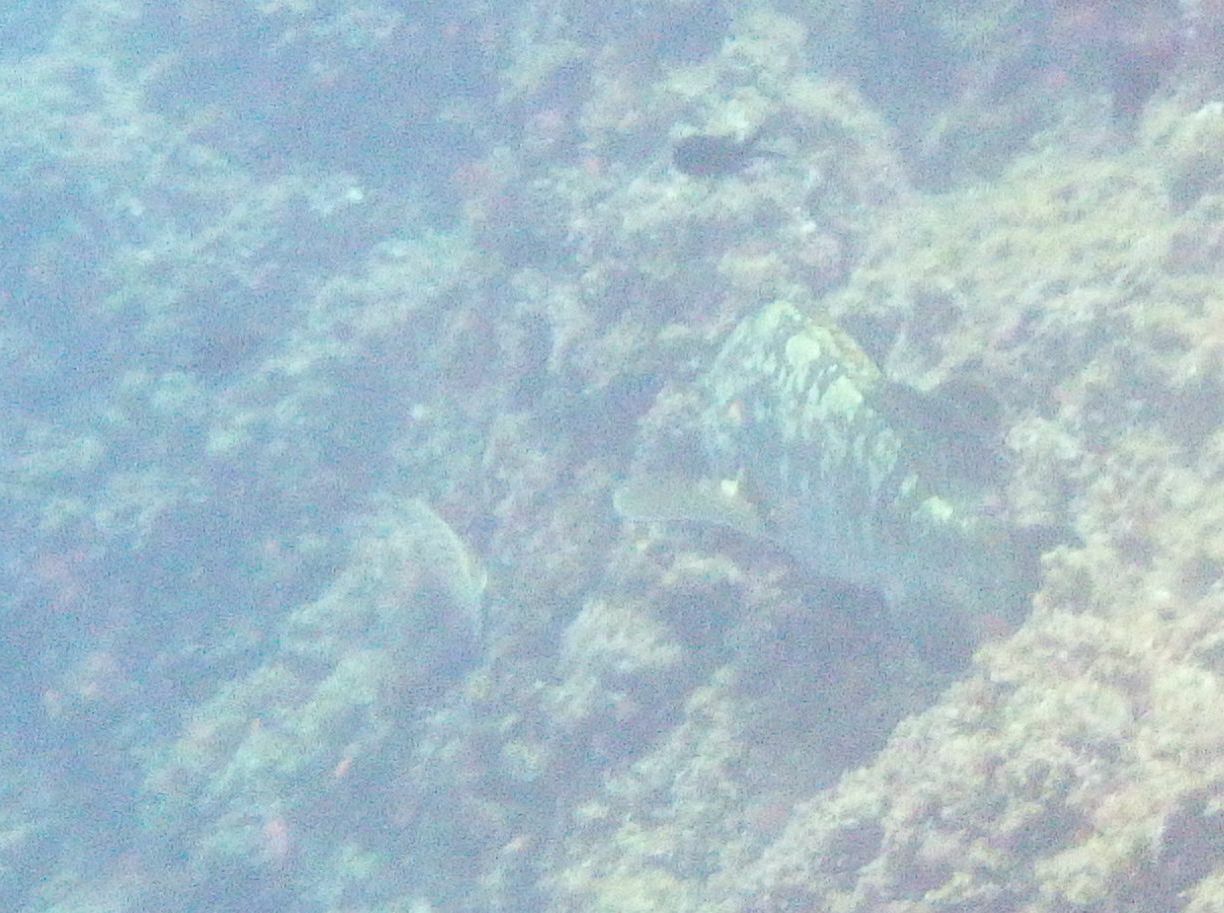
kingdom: Animalia
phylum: Chordata
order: Perciformes
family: Serranidae
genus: Epinephelus
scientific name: Epinephelus marginatus
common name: Dusky grouper
